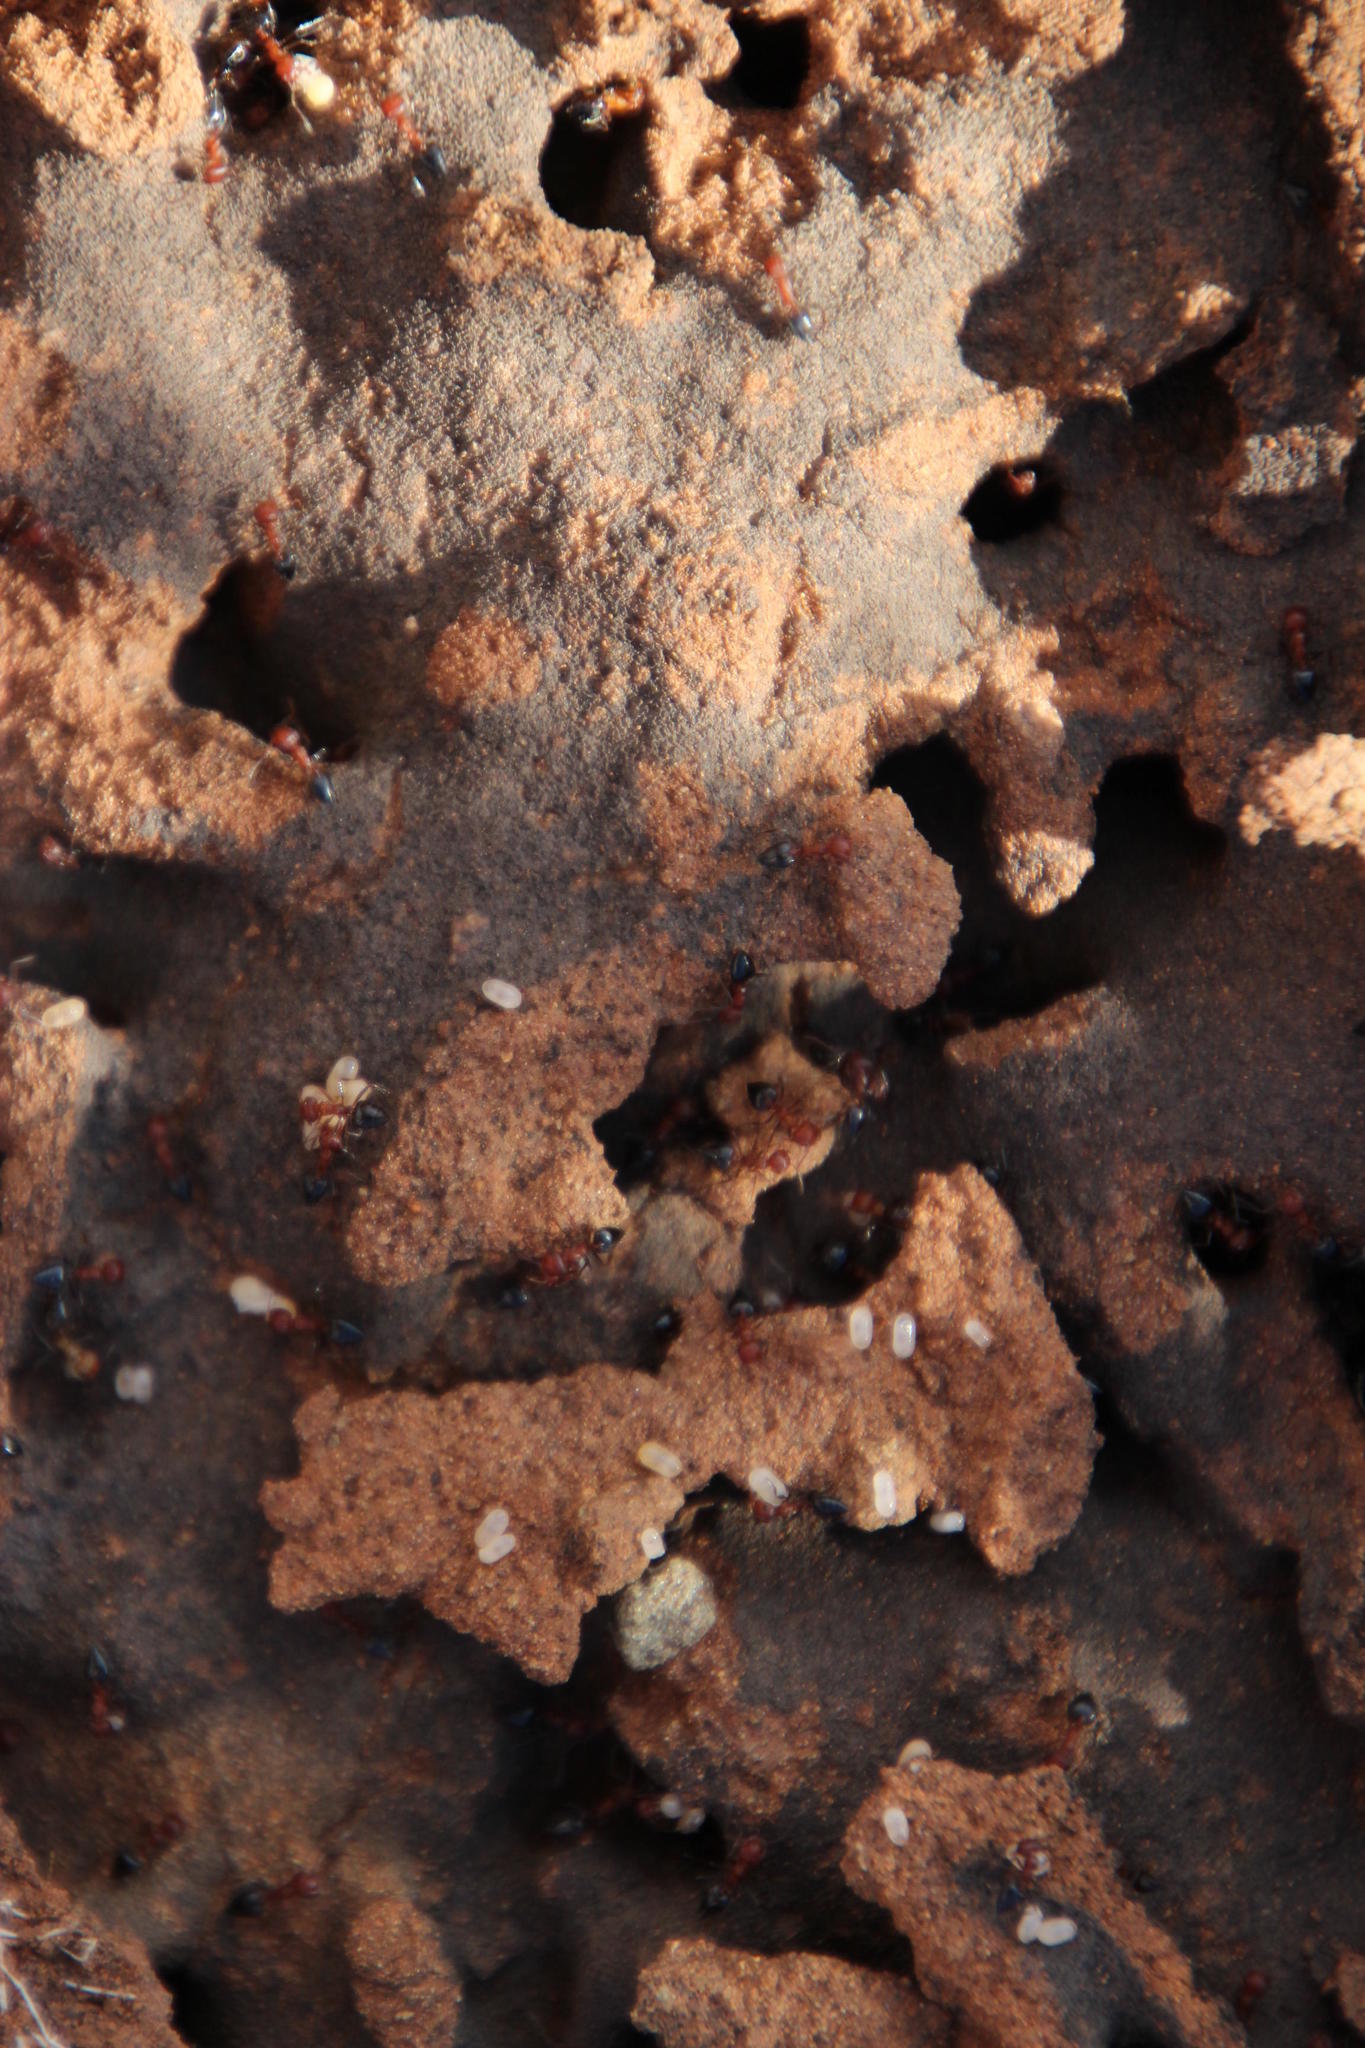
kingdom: Animalia
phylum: Arthropoda
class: Insecta
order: Hymenoptera
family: Formicidae
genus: Crematogaster
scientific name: Crematogaster schultzei
